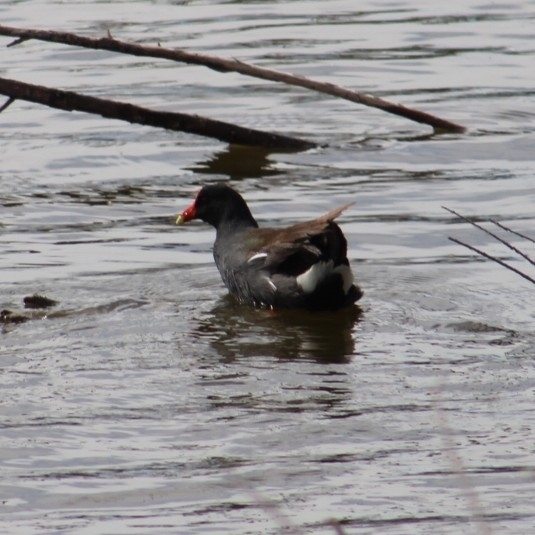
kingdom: Animalia
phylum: Chordata
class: Aves
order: Gruiformes
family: Rallidae
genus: Gallinula
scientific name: Gallinula chloropus
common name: Common moorhen
